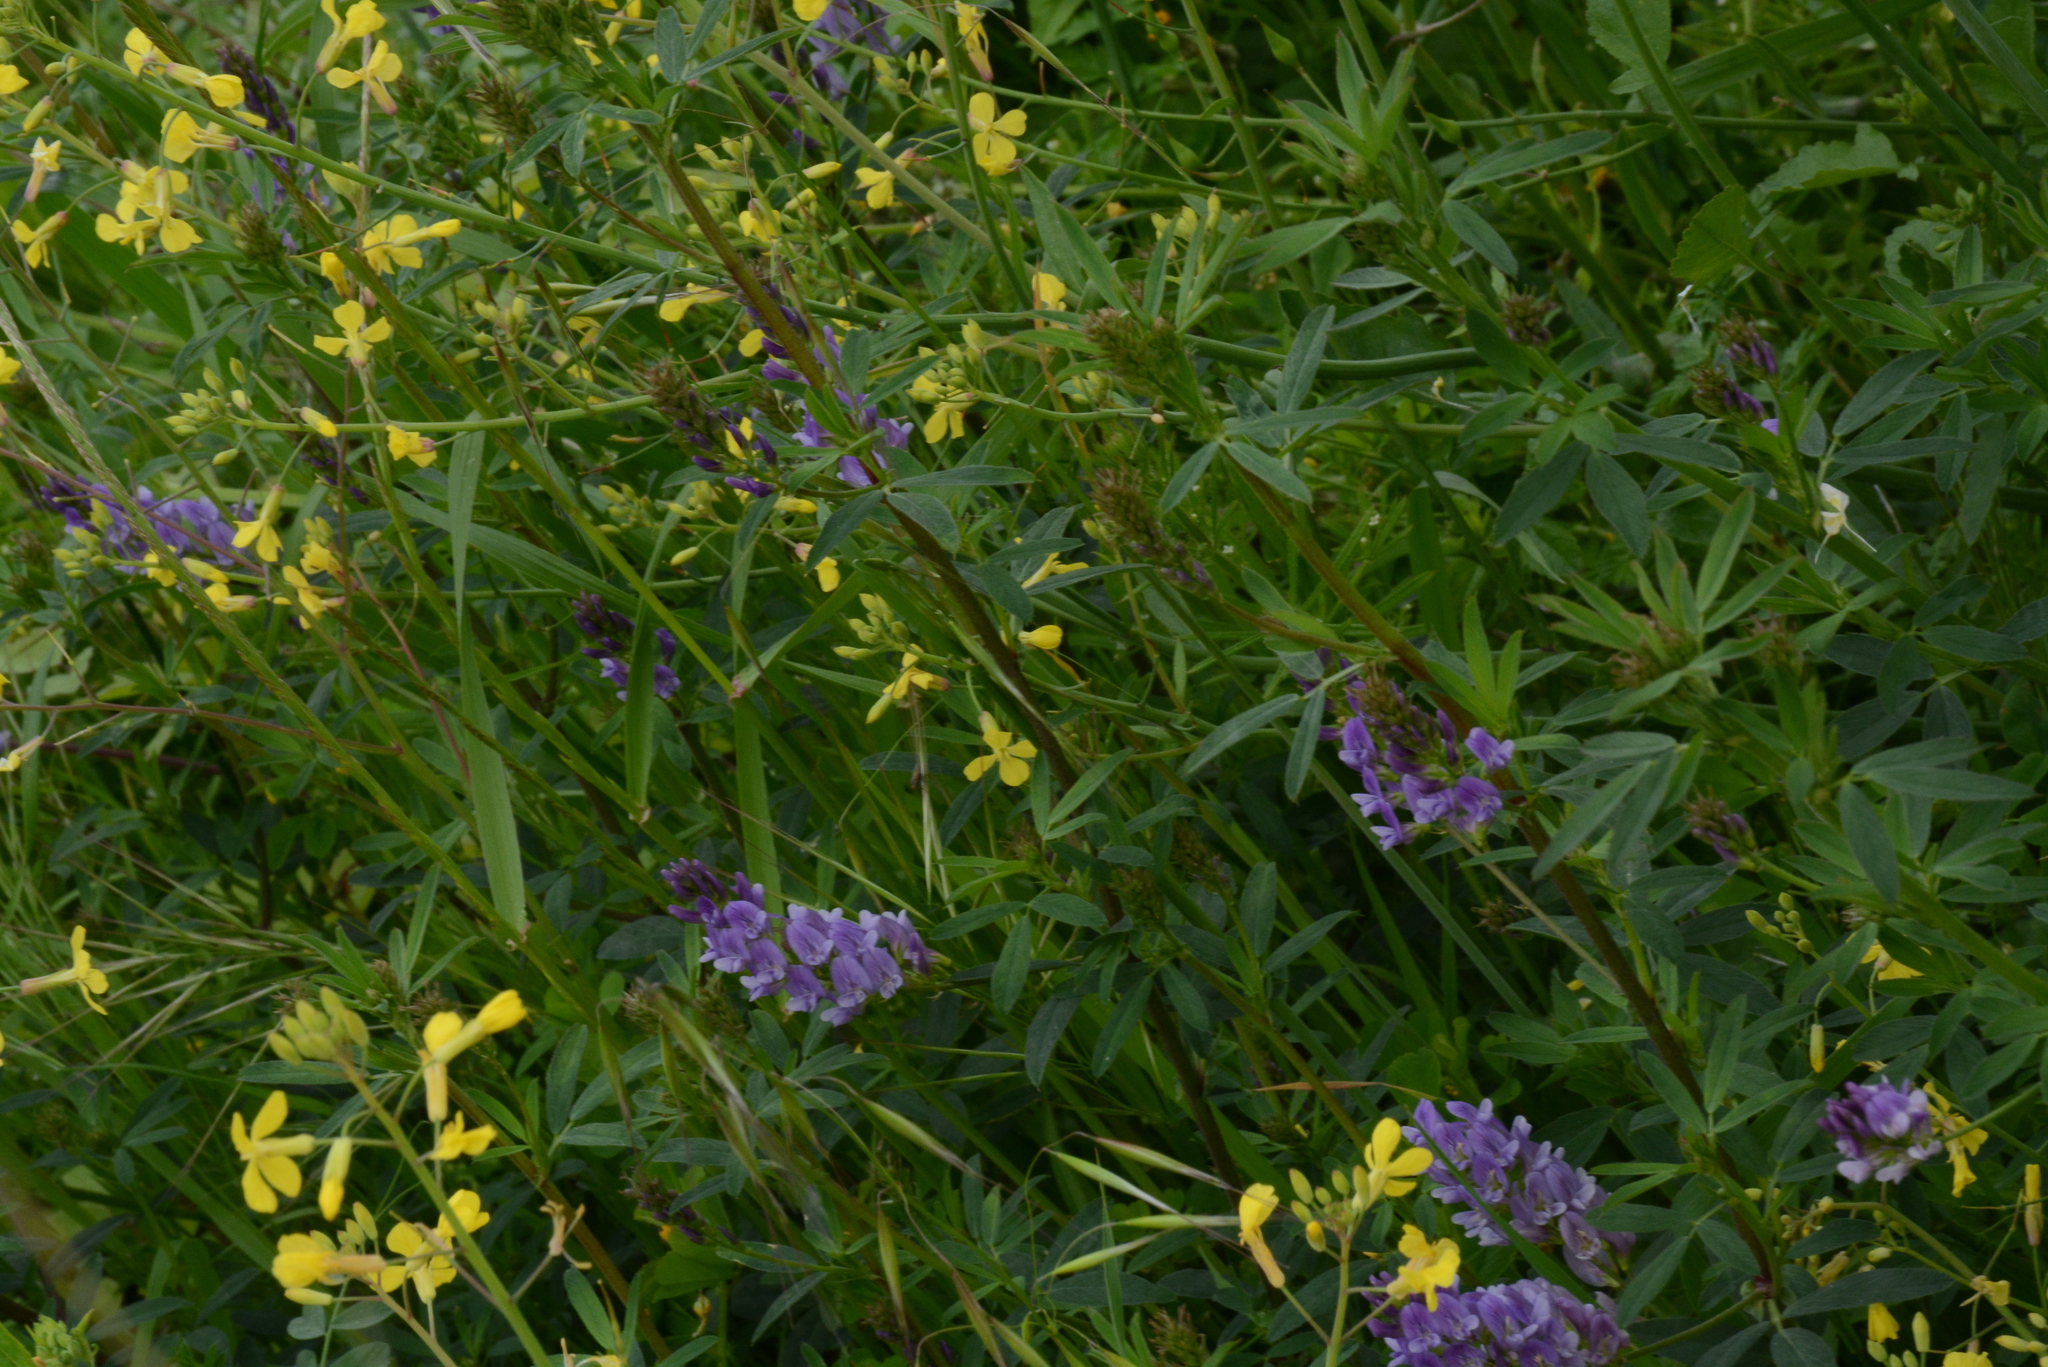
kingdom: Plantae
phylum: Tracheophyta
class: Magnoliopsida
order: Fabales
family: Fabaceae
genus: Medicago
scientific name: Medicago sativa
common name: Alfalfa
